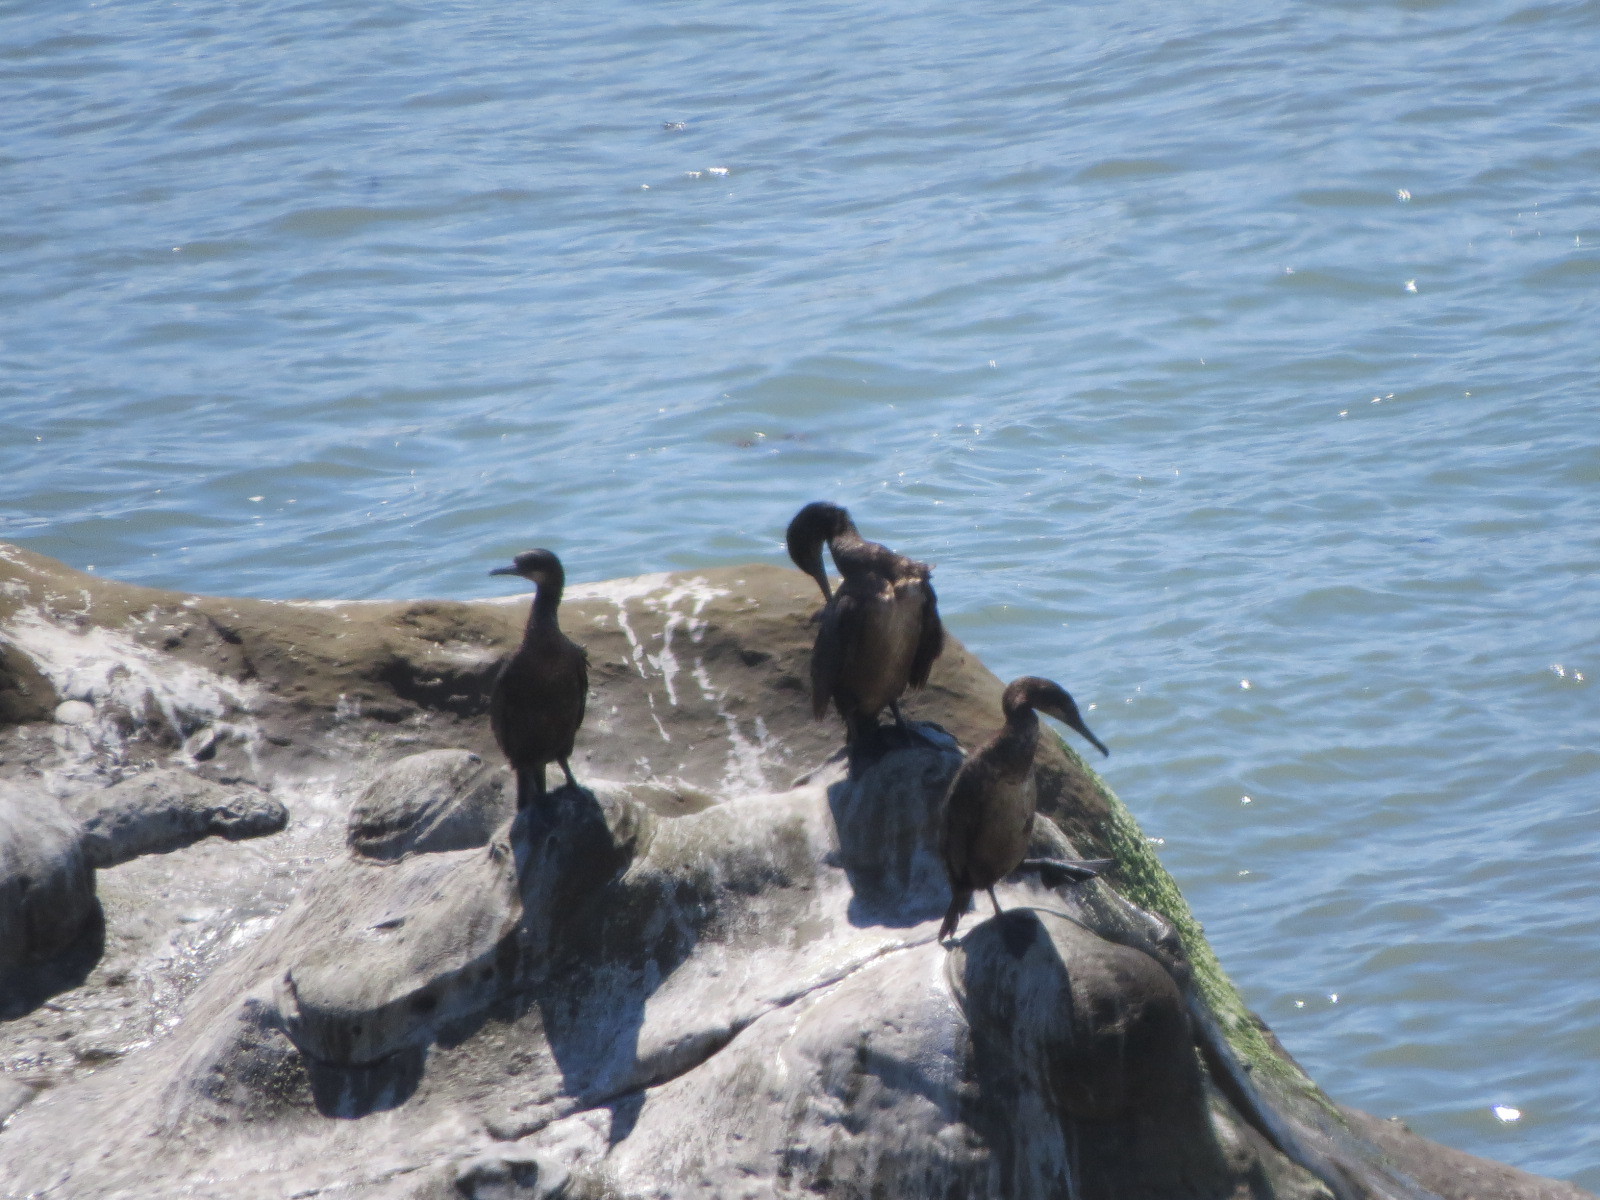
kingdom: Animalia
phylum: Chordata
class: Aves
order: Suliformes
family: Phalacrocoracidae
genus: Urile
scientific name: Urile penicillatus
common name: Brandt's cormorant
